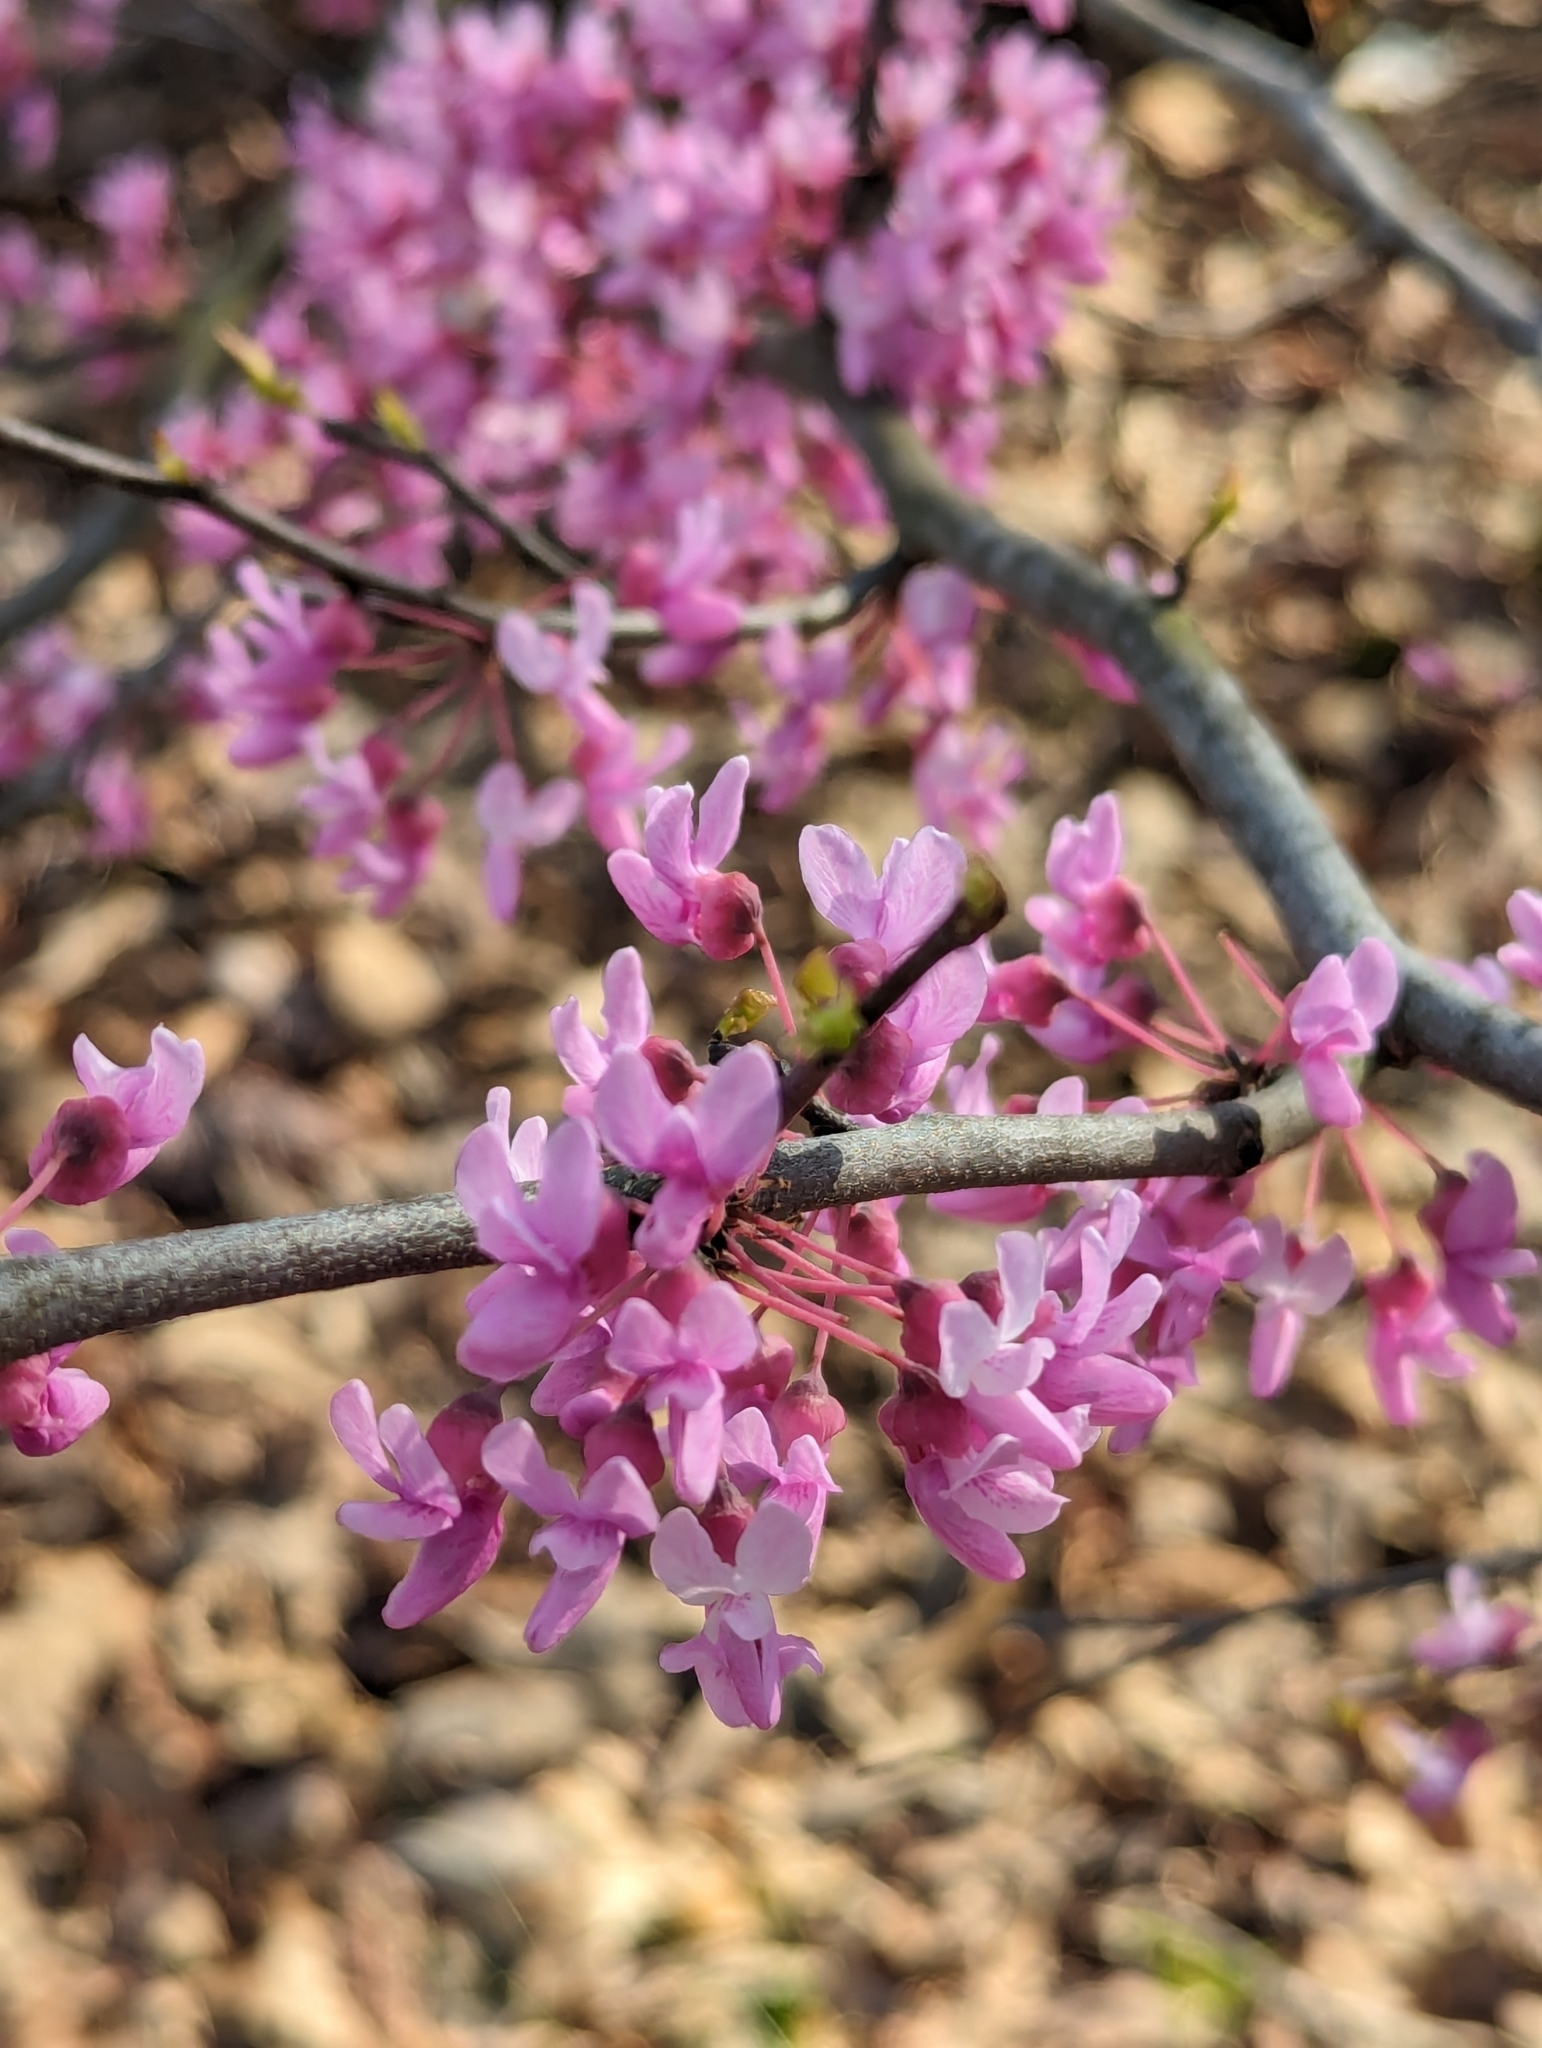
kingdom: Plantae
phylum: Tracheophyta
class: Magnoliopsida
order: Fabales
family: Fabaceae
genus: Cercis
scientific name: Cercis canadensis
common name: Eastern redbud
